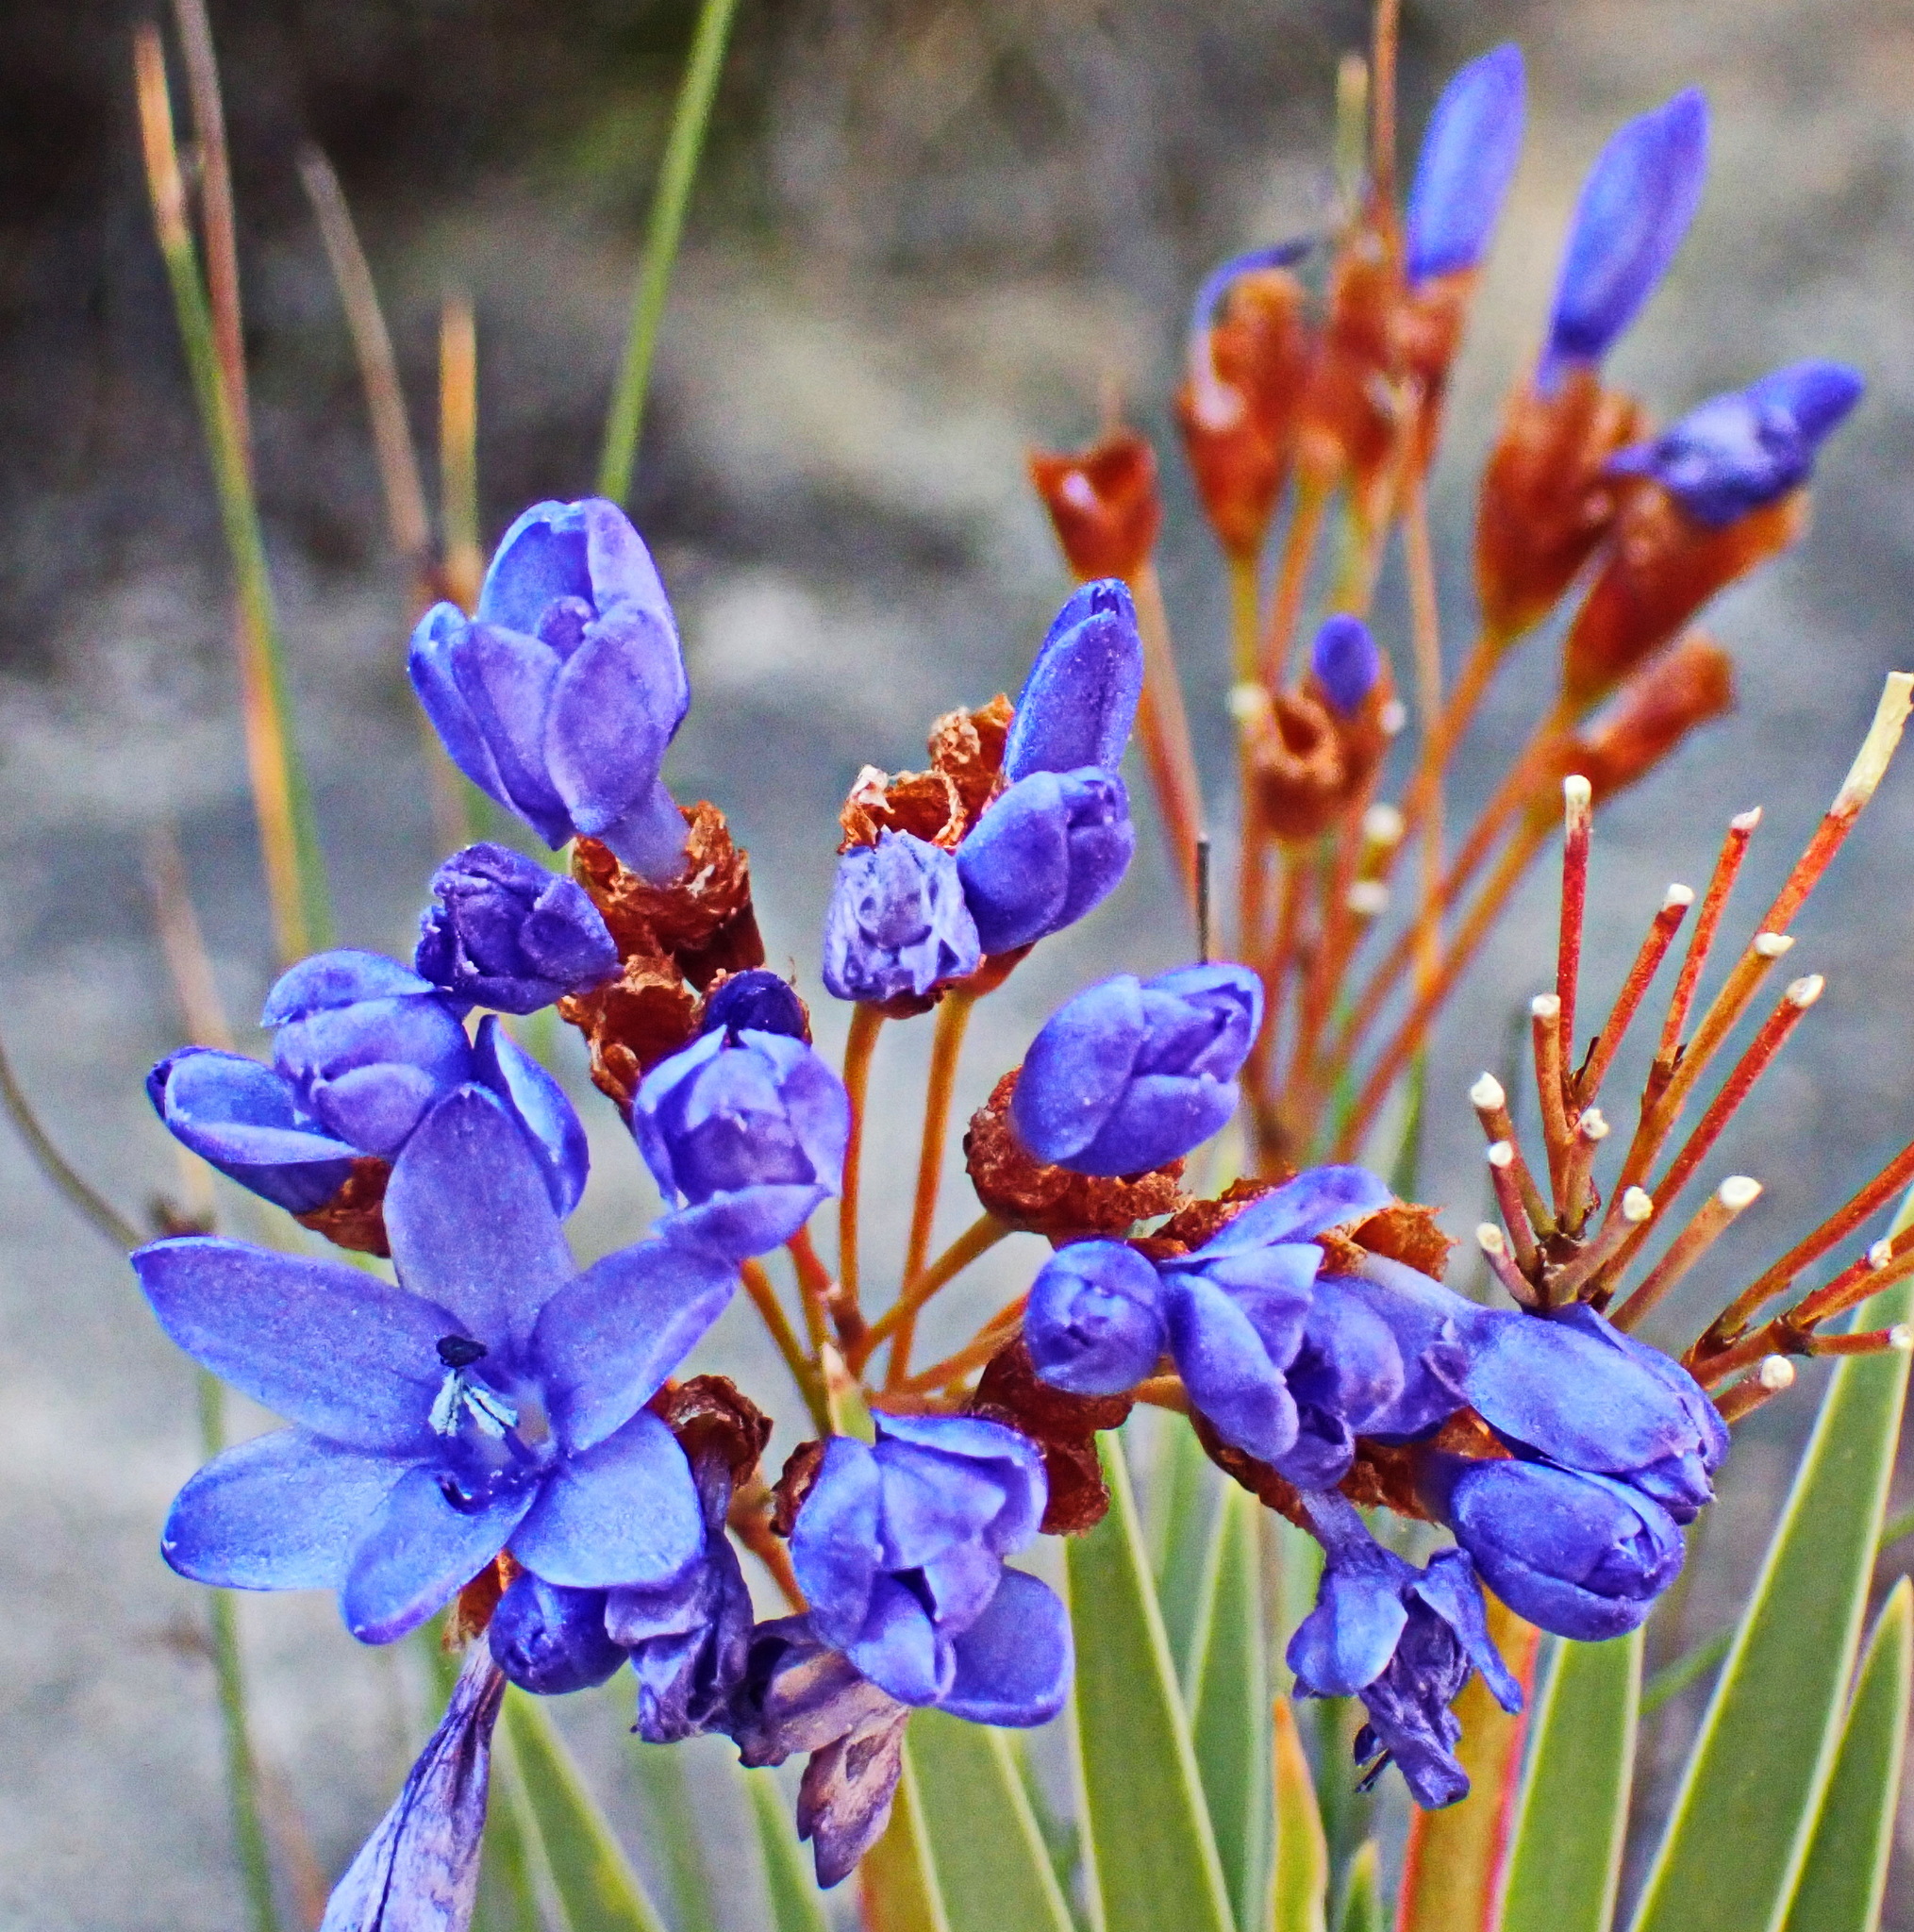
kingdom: Plantae
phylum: Tracheophyta
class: Liliopsida
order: Asparagales
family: Iridaceae
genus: Nivenia
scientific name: Nivenia binata
